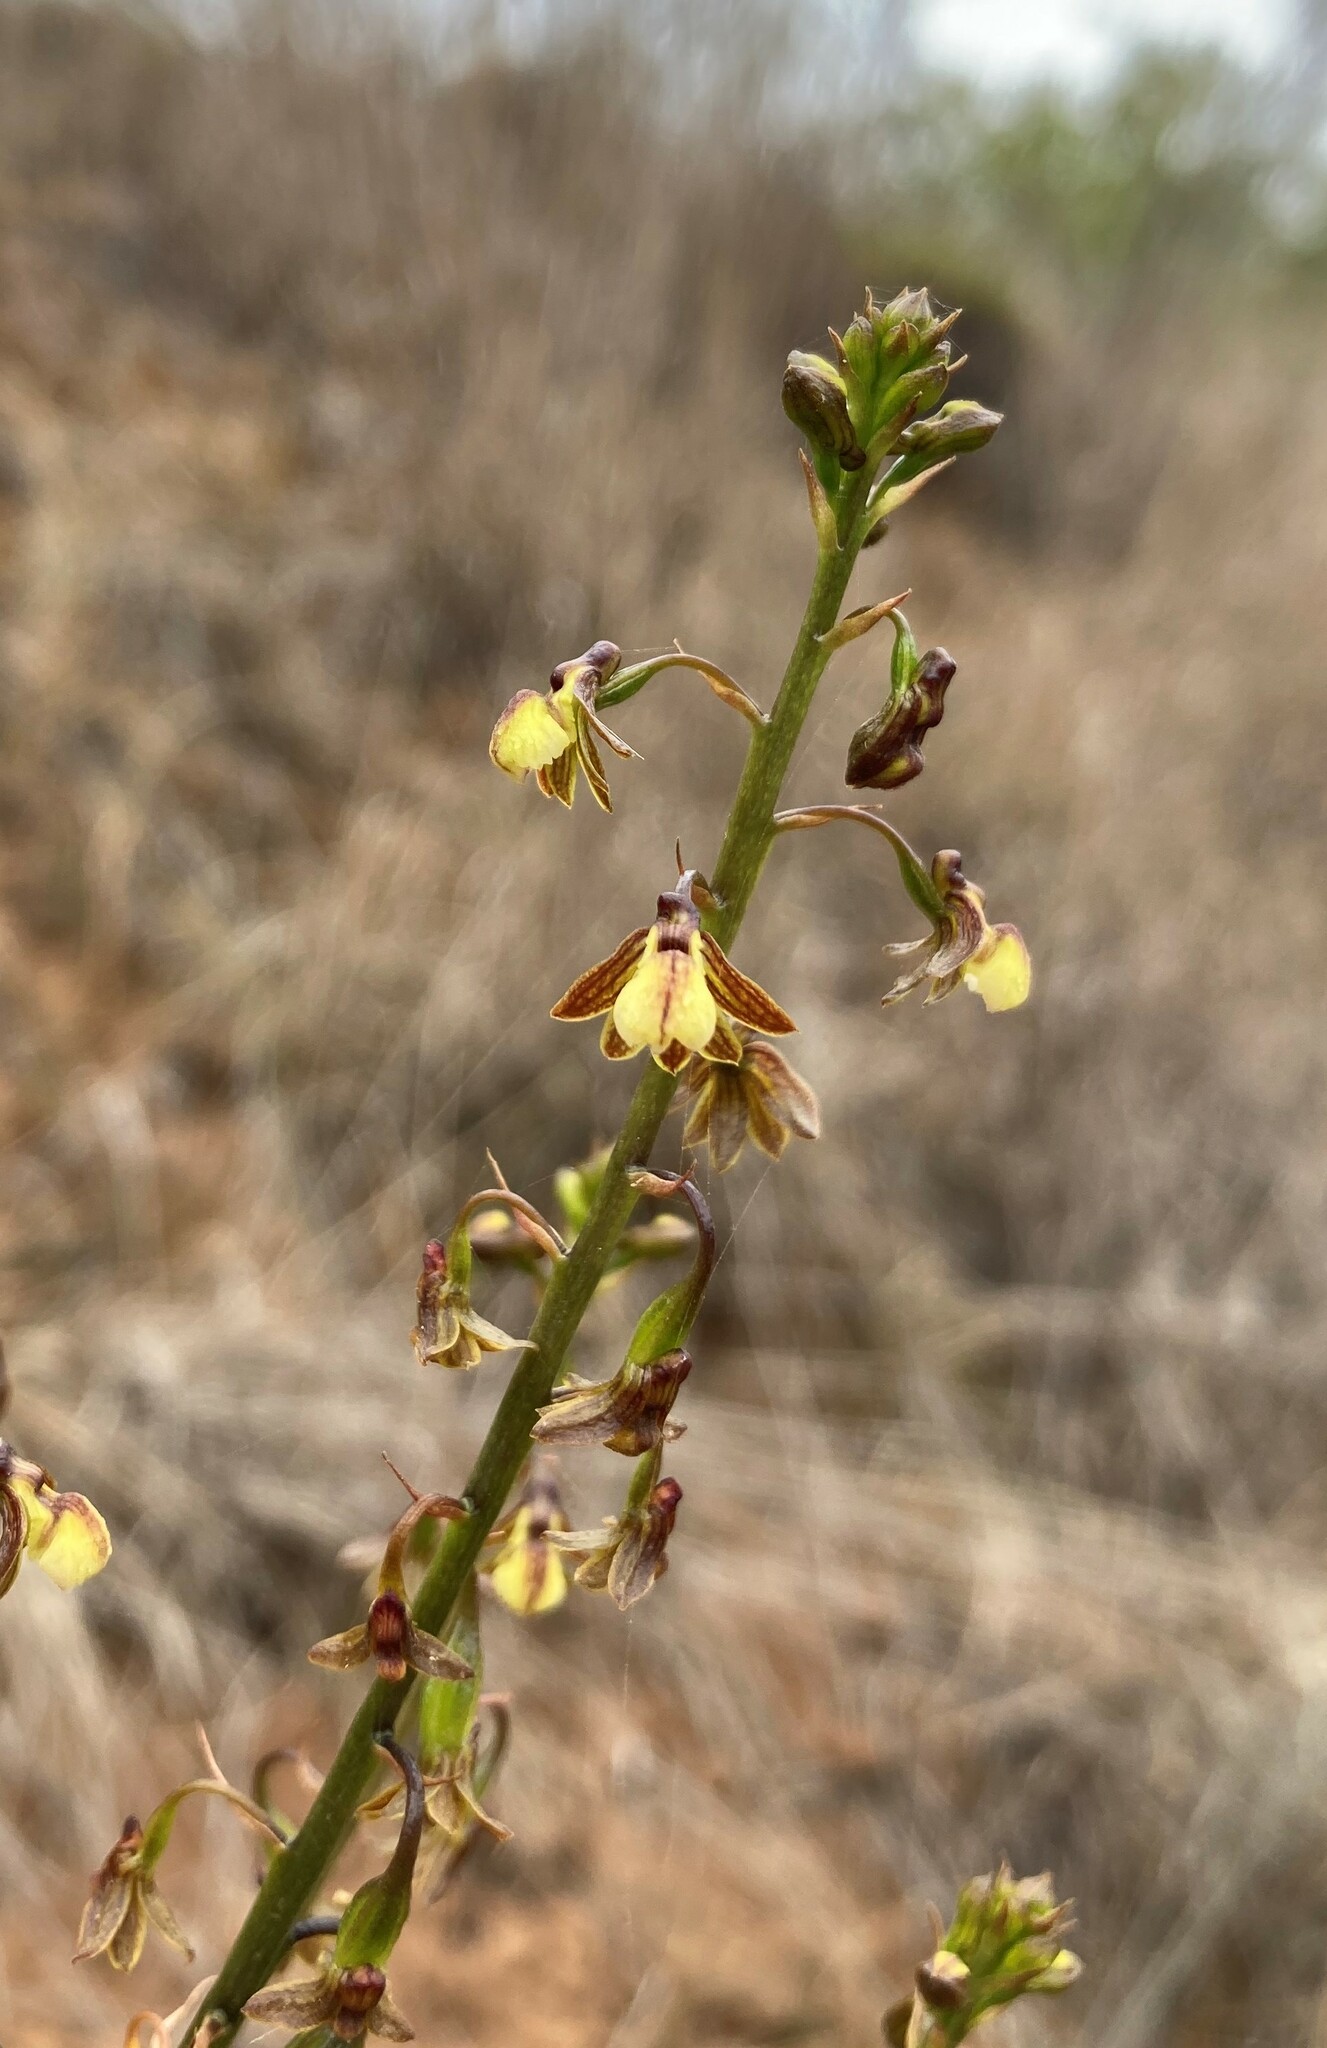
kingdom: Plantae
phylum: Tracheophyta
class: Liliopsida
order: Asparagales
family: Orchidaceae
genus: Eulophia
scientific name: Eulophia cochlearis
